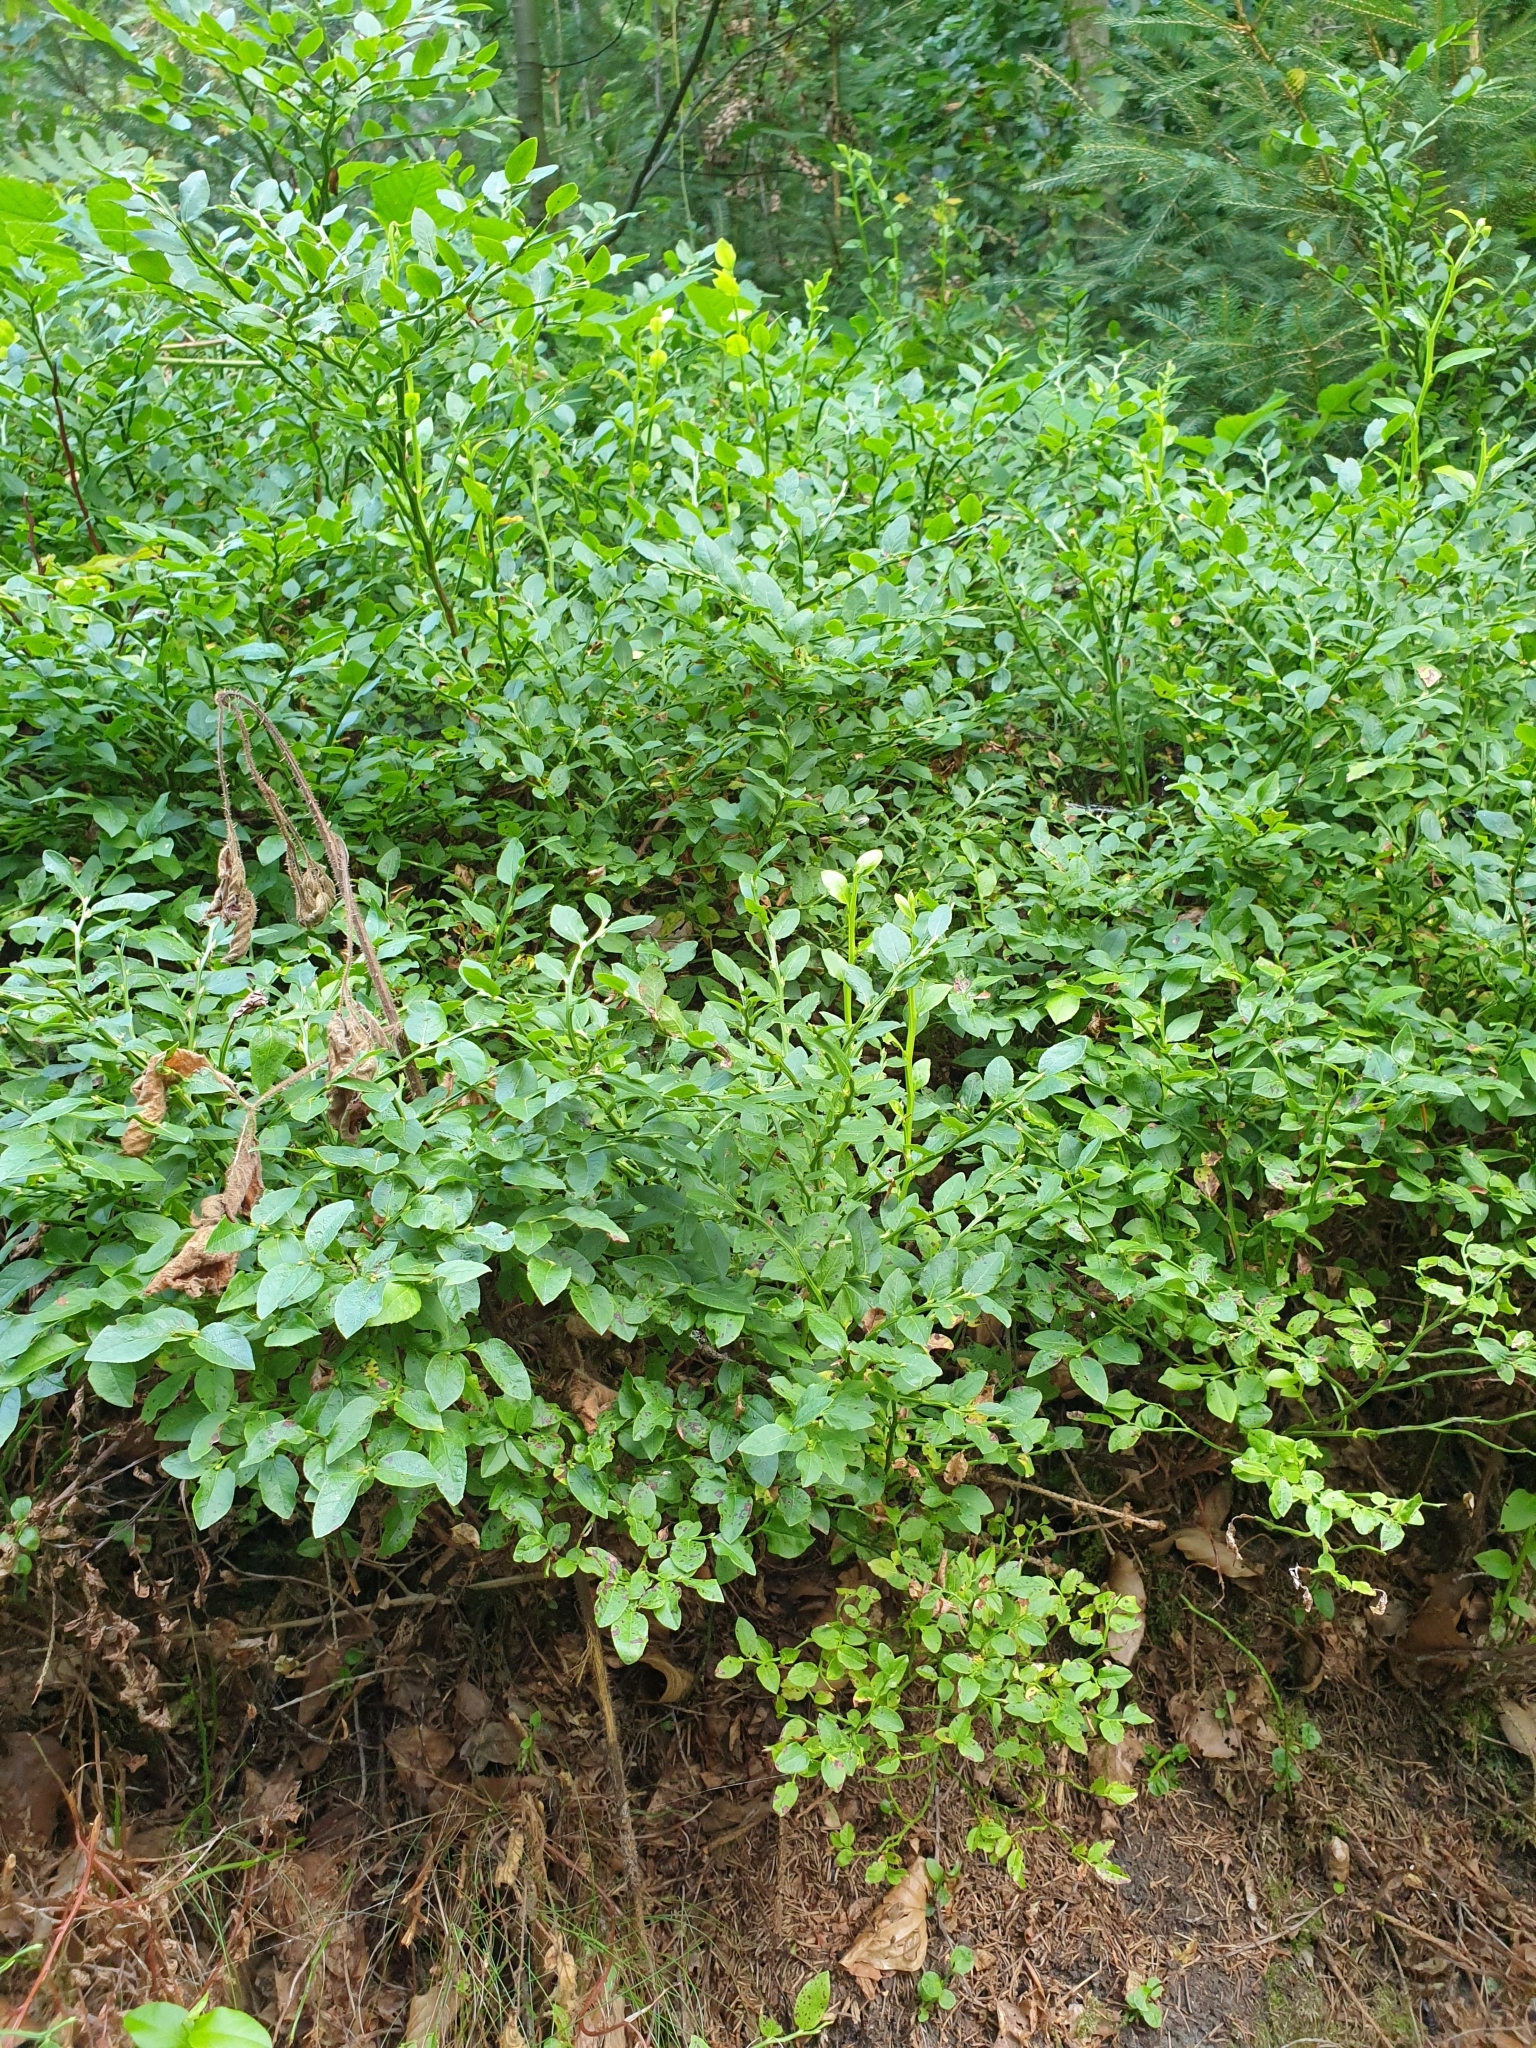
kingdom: Plantae
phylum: Tracheophyta
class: Magnoliopsida
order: Ericales
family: Ericaceae
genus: Vaccinium
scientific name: Vaccinium myrtillus
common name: Bilberry
